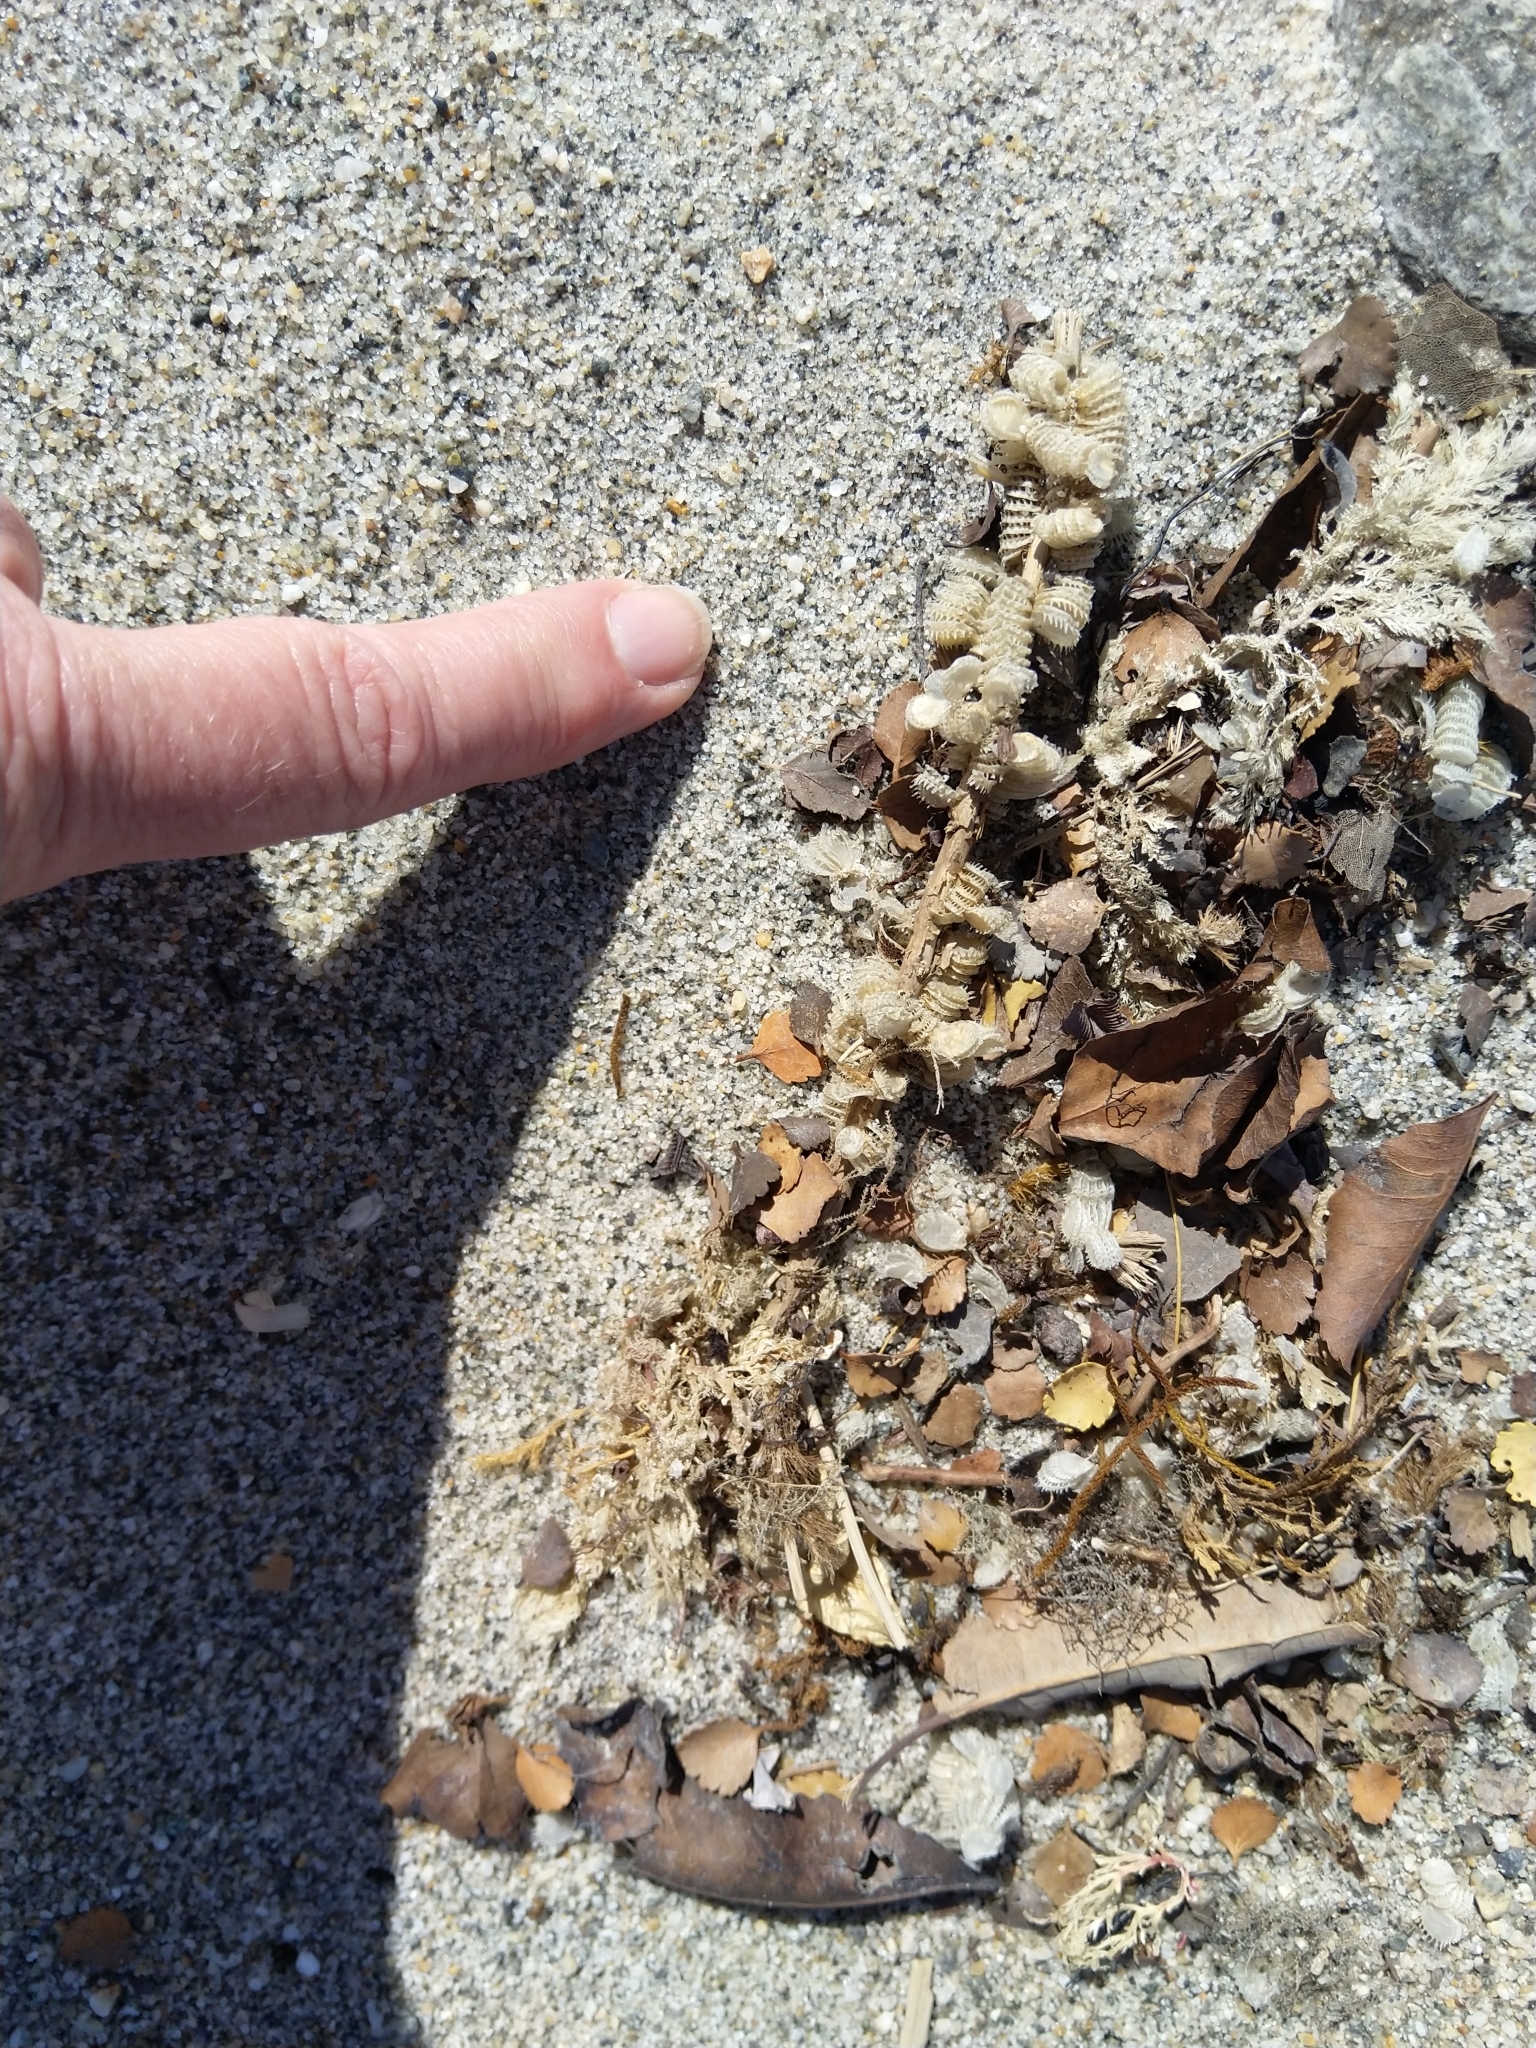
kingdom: Animalia
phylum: Mollusca
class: Gastropoda
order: Neogastropoda
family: Muricidae
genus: Poirieria
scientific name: Poirieria zelandica
